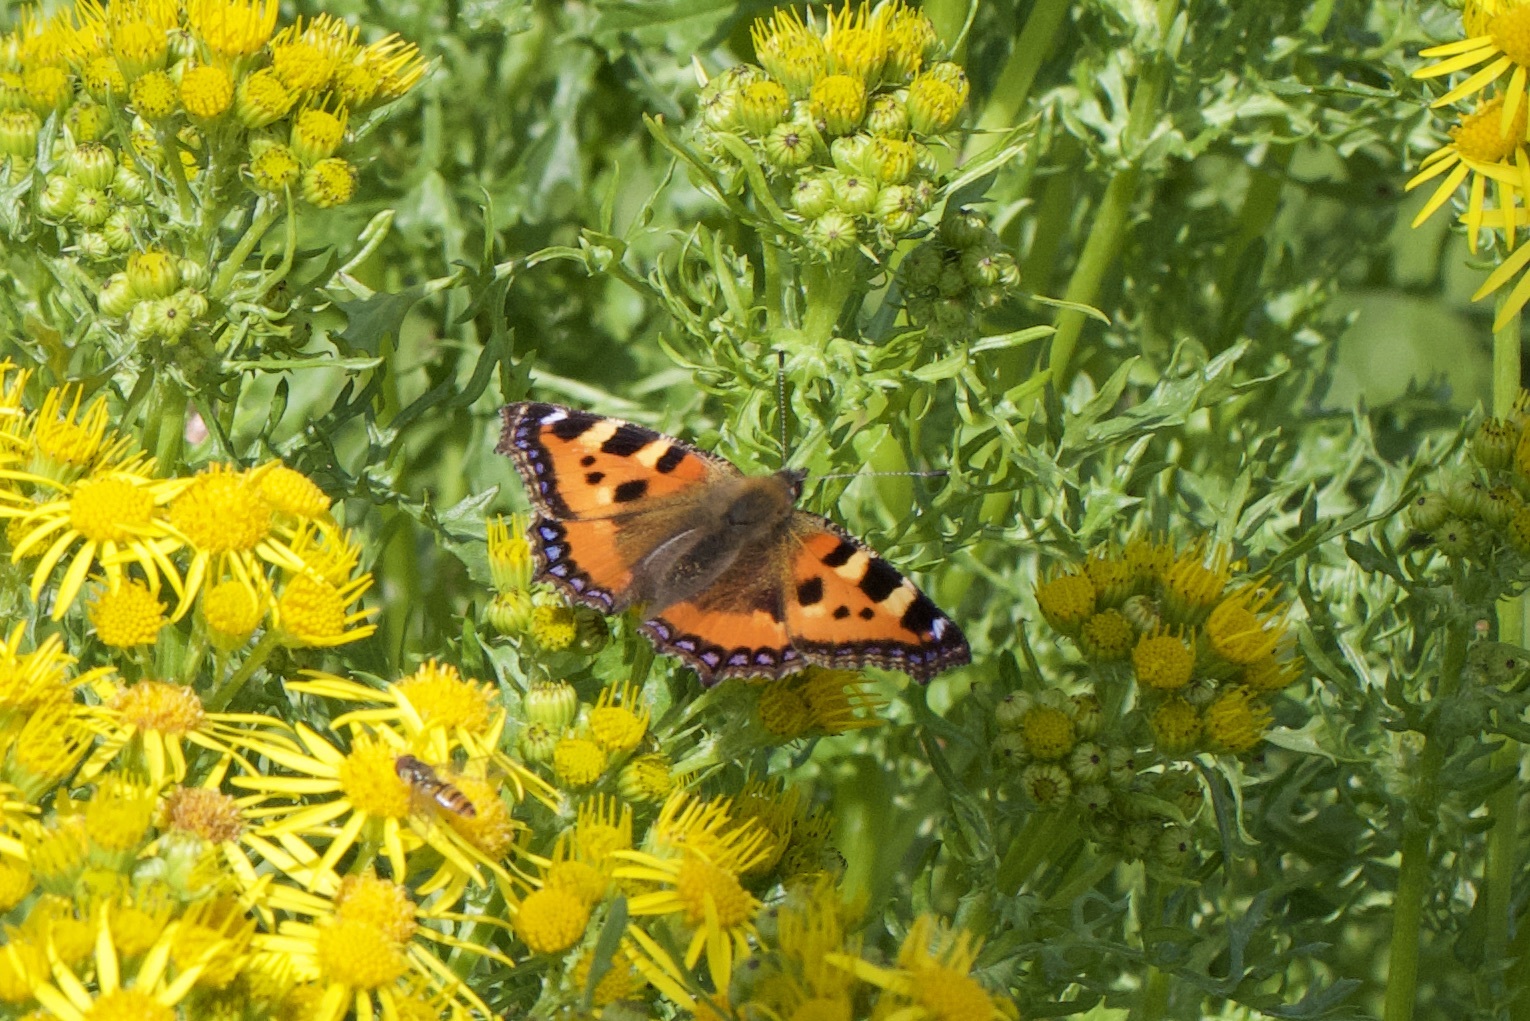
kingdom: Animalia
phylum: Arthropoda
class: Insecta
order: Lepidoptera
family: Nymphalidae
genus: Aglais
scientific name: Aglais urticae
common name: Small tortoiseshell
